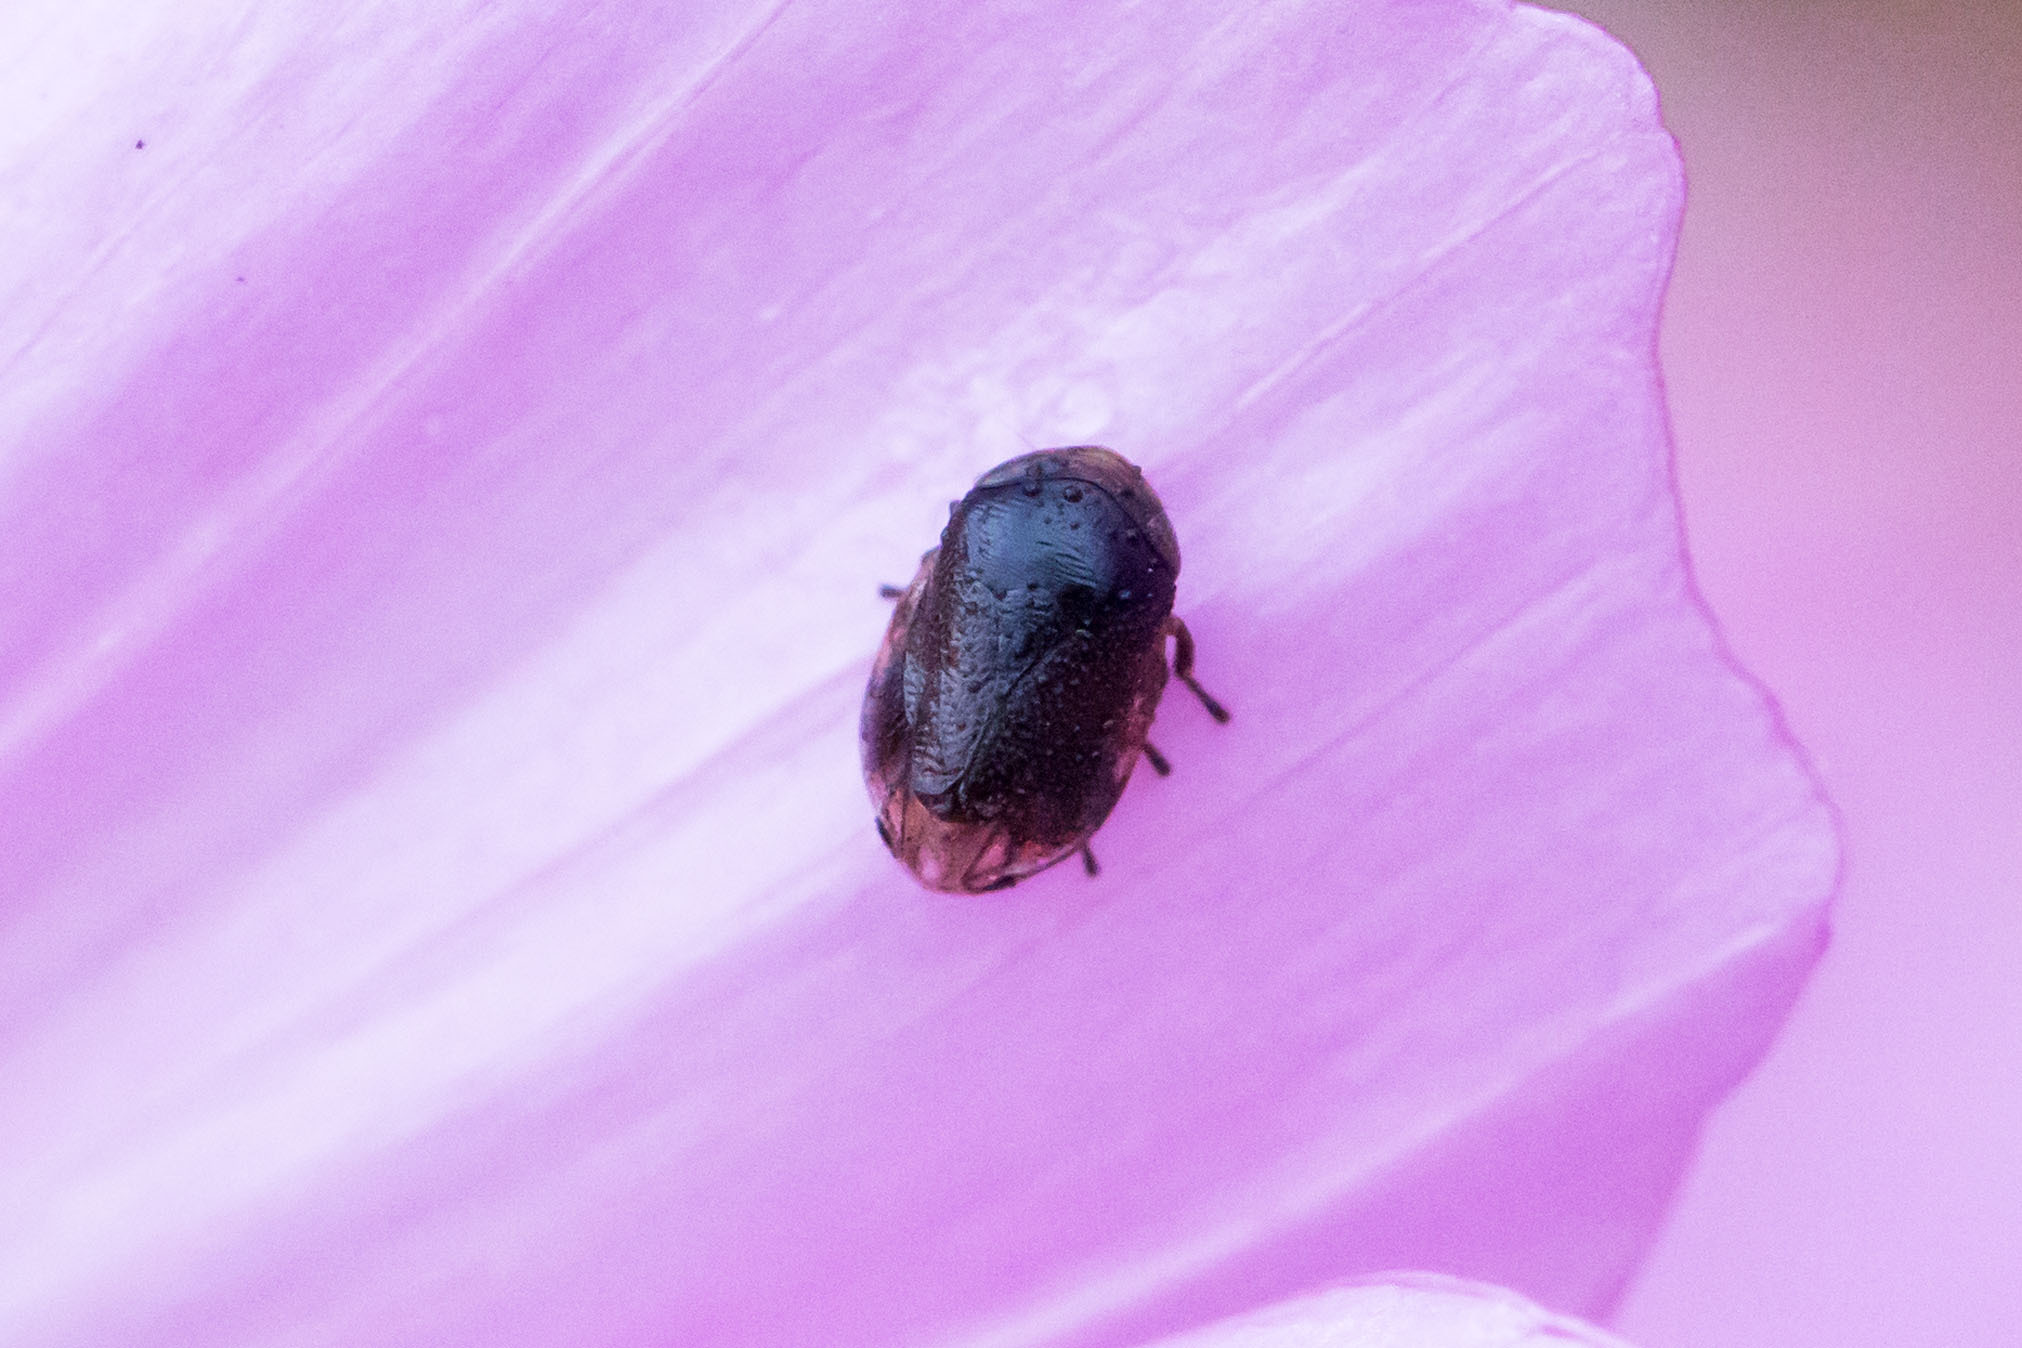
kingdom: Animalia
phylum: Arthropoda
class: Insecta
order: Hemiptera
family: Clastopteridae
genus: Clastoptera
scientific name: Clastoptera xanthocephala
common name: Sunflower spittlebug
